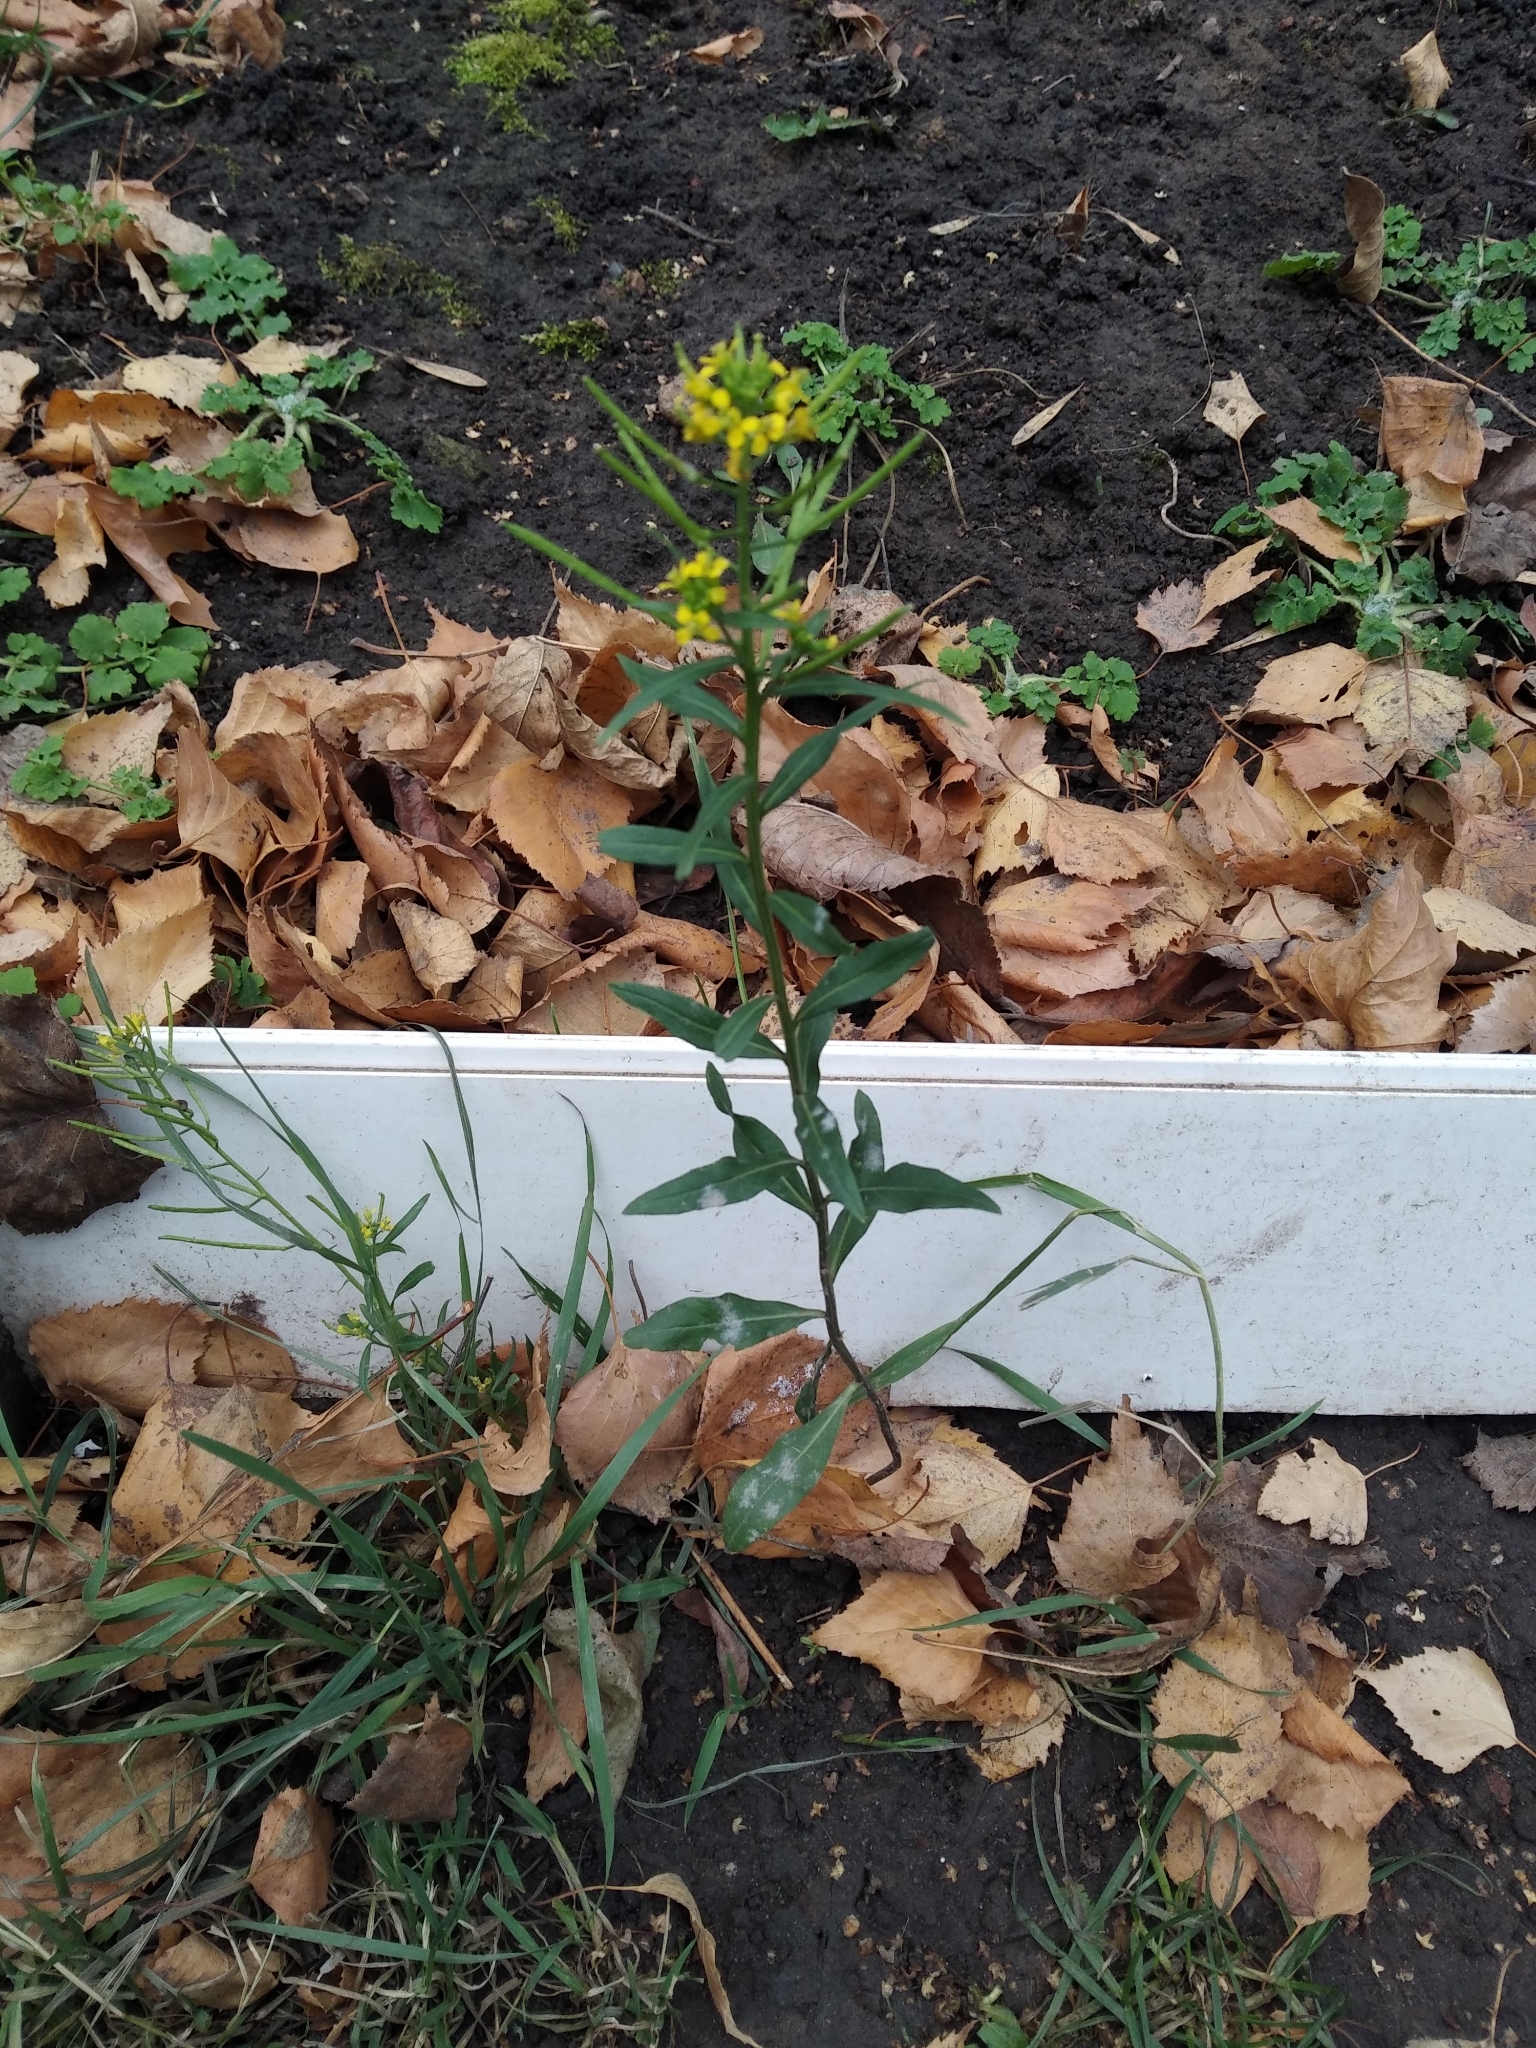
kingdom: Plantae
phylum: Tracheophyta
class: Magnoliopsida
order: Brassicales
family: Brassicaceae
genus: Erysimum
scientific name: Erysimum cheiranthoides
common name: Treacle mustard
